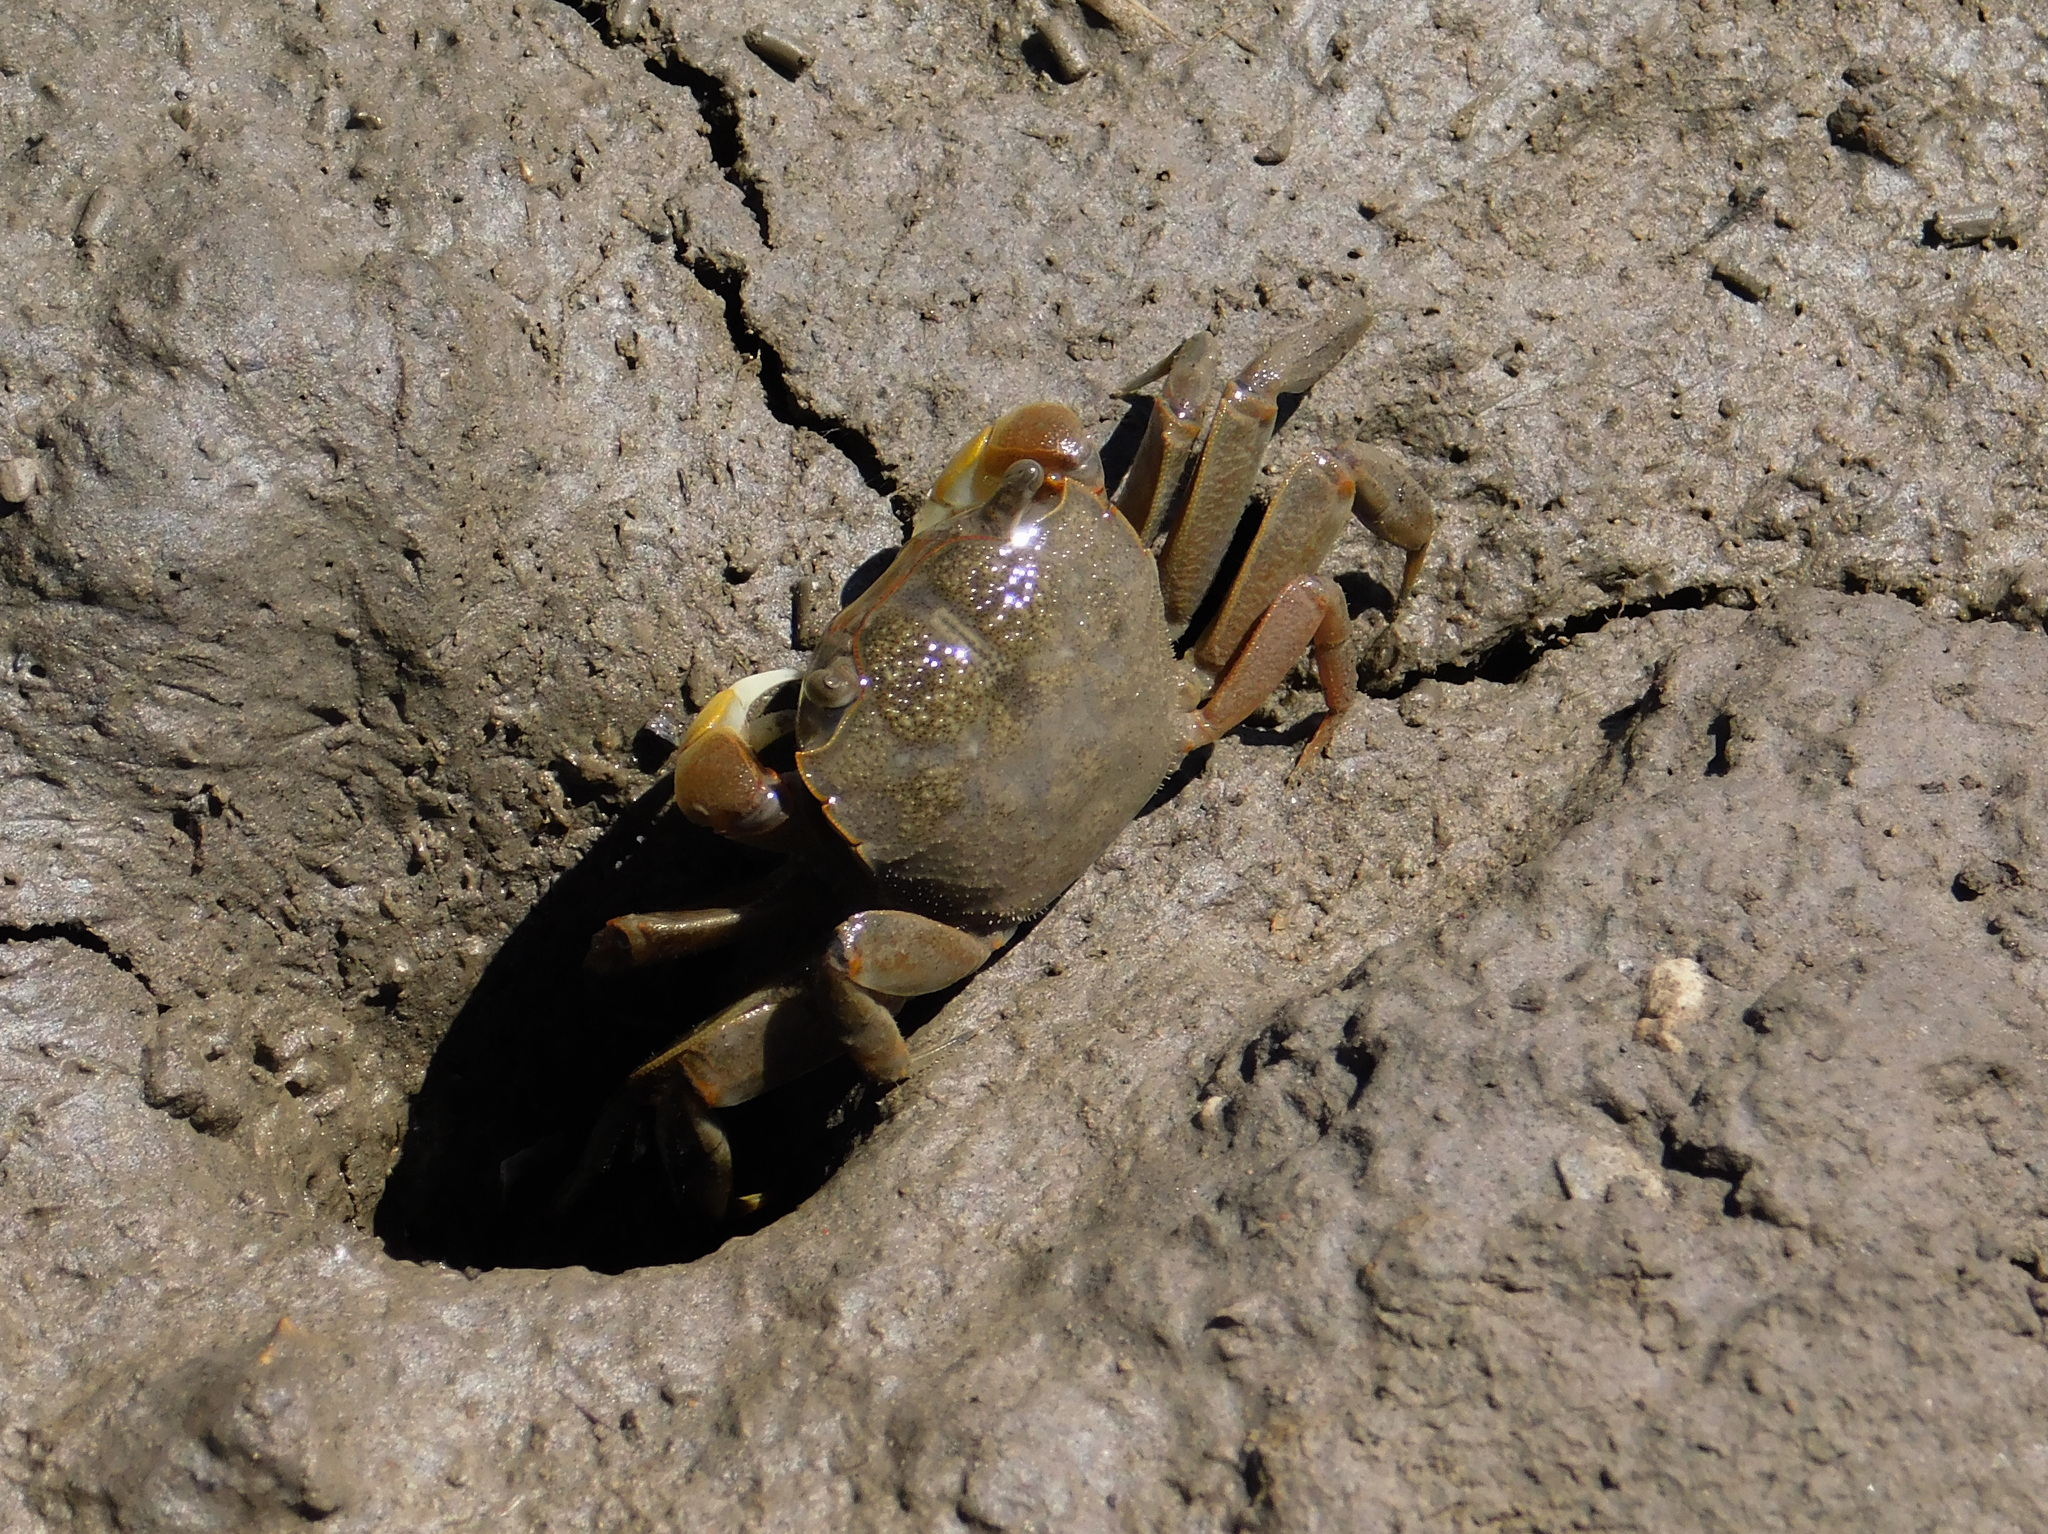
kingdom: Animalia
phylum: Arthropoda
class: Malacostraca
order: Decapoda
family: Varunidae
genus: Neohelice
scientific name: Neohelice granulata
